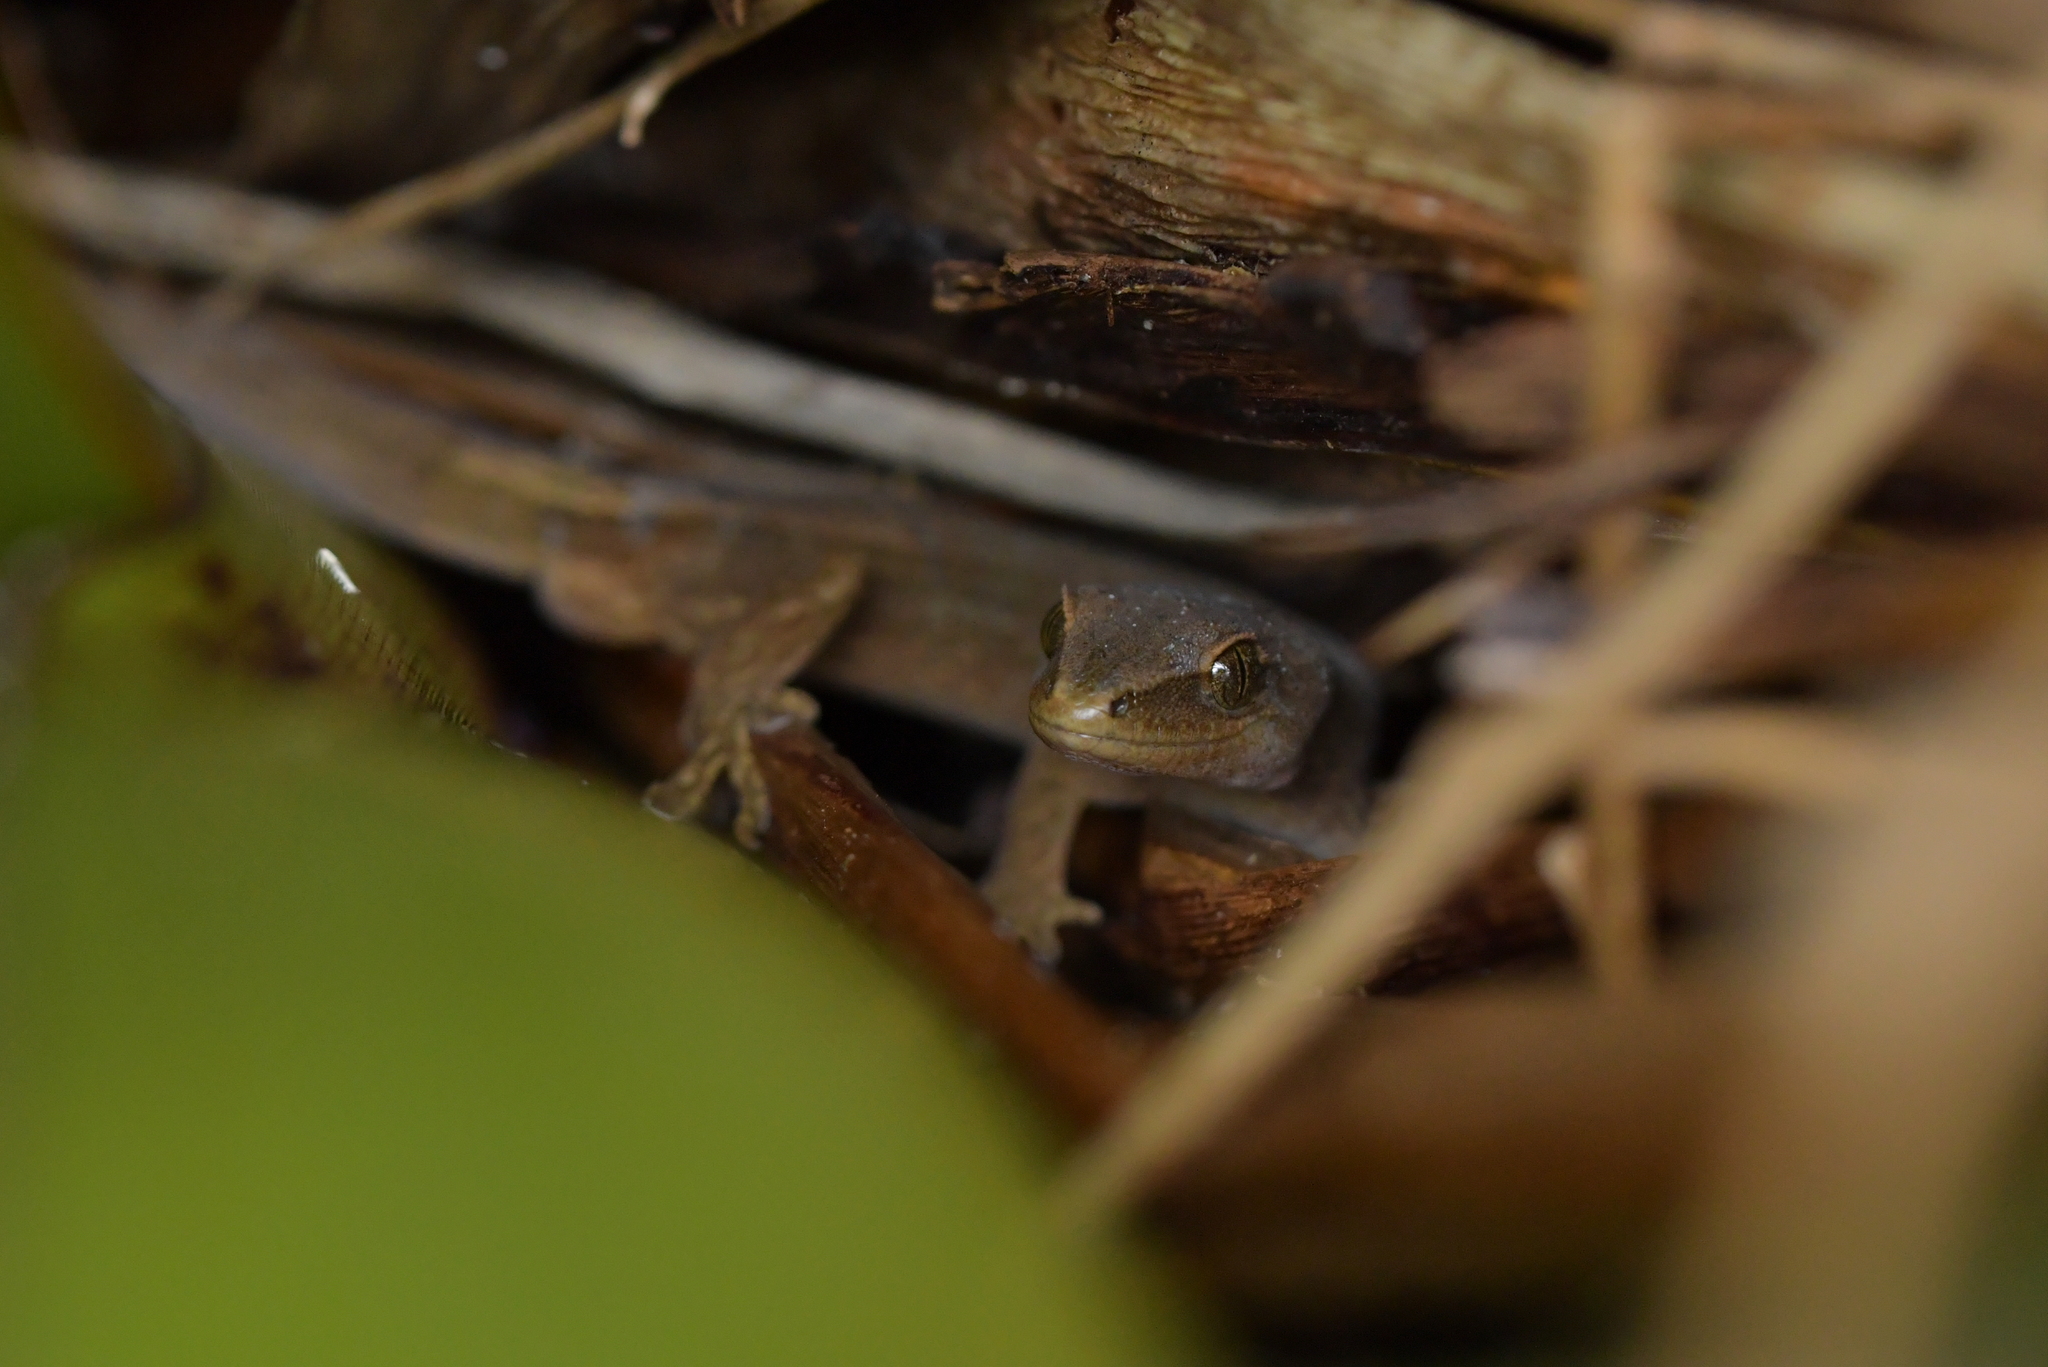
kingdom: Animalia
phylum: Chordata
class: Squamata
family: Diplodactylidae
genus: Woodworthia
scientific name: Woodworthia chrysosiretica
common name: Gold-striped gecko
